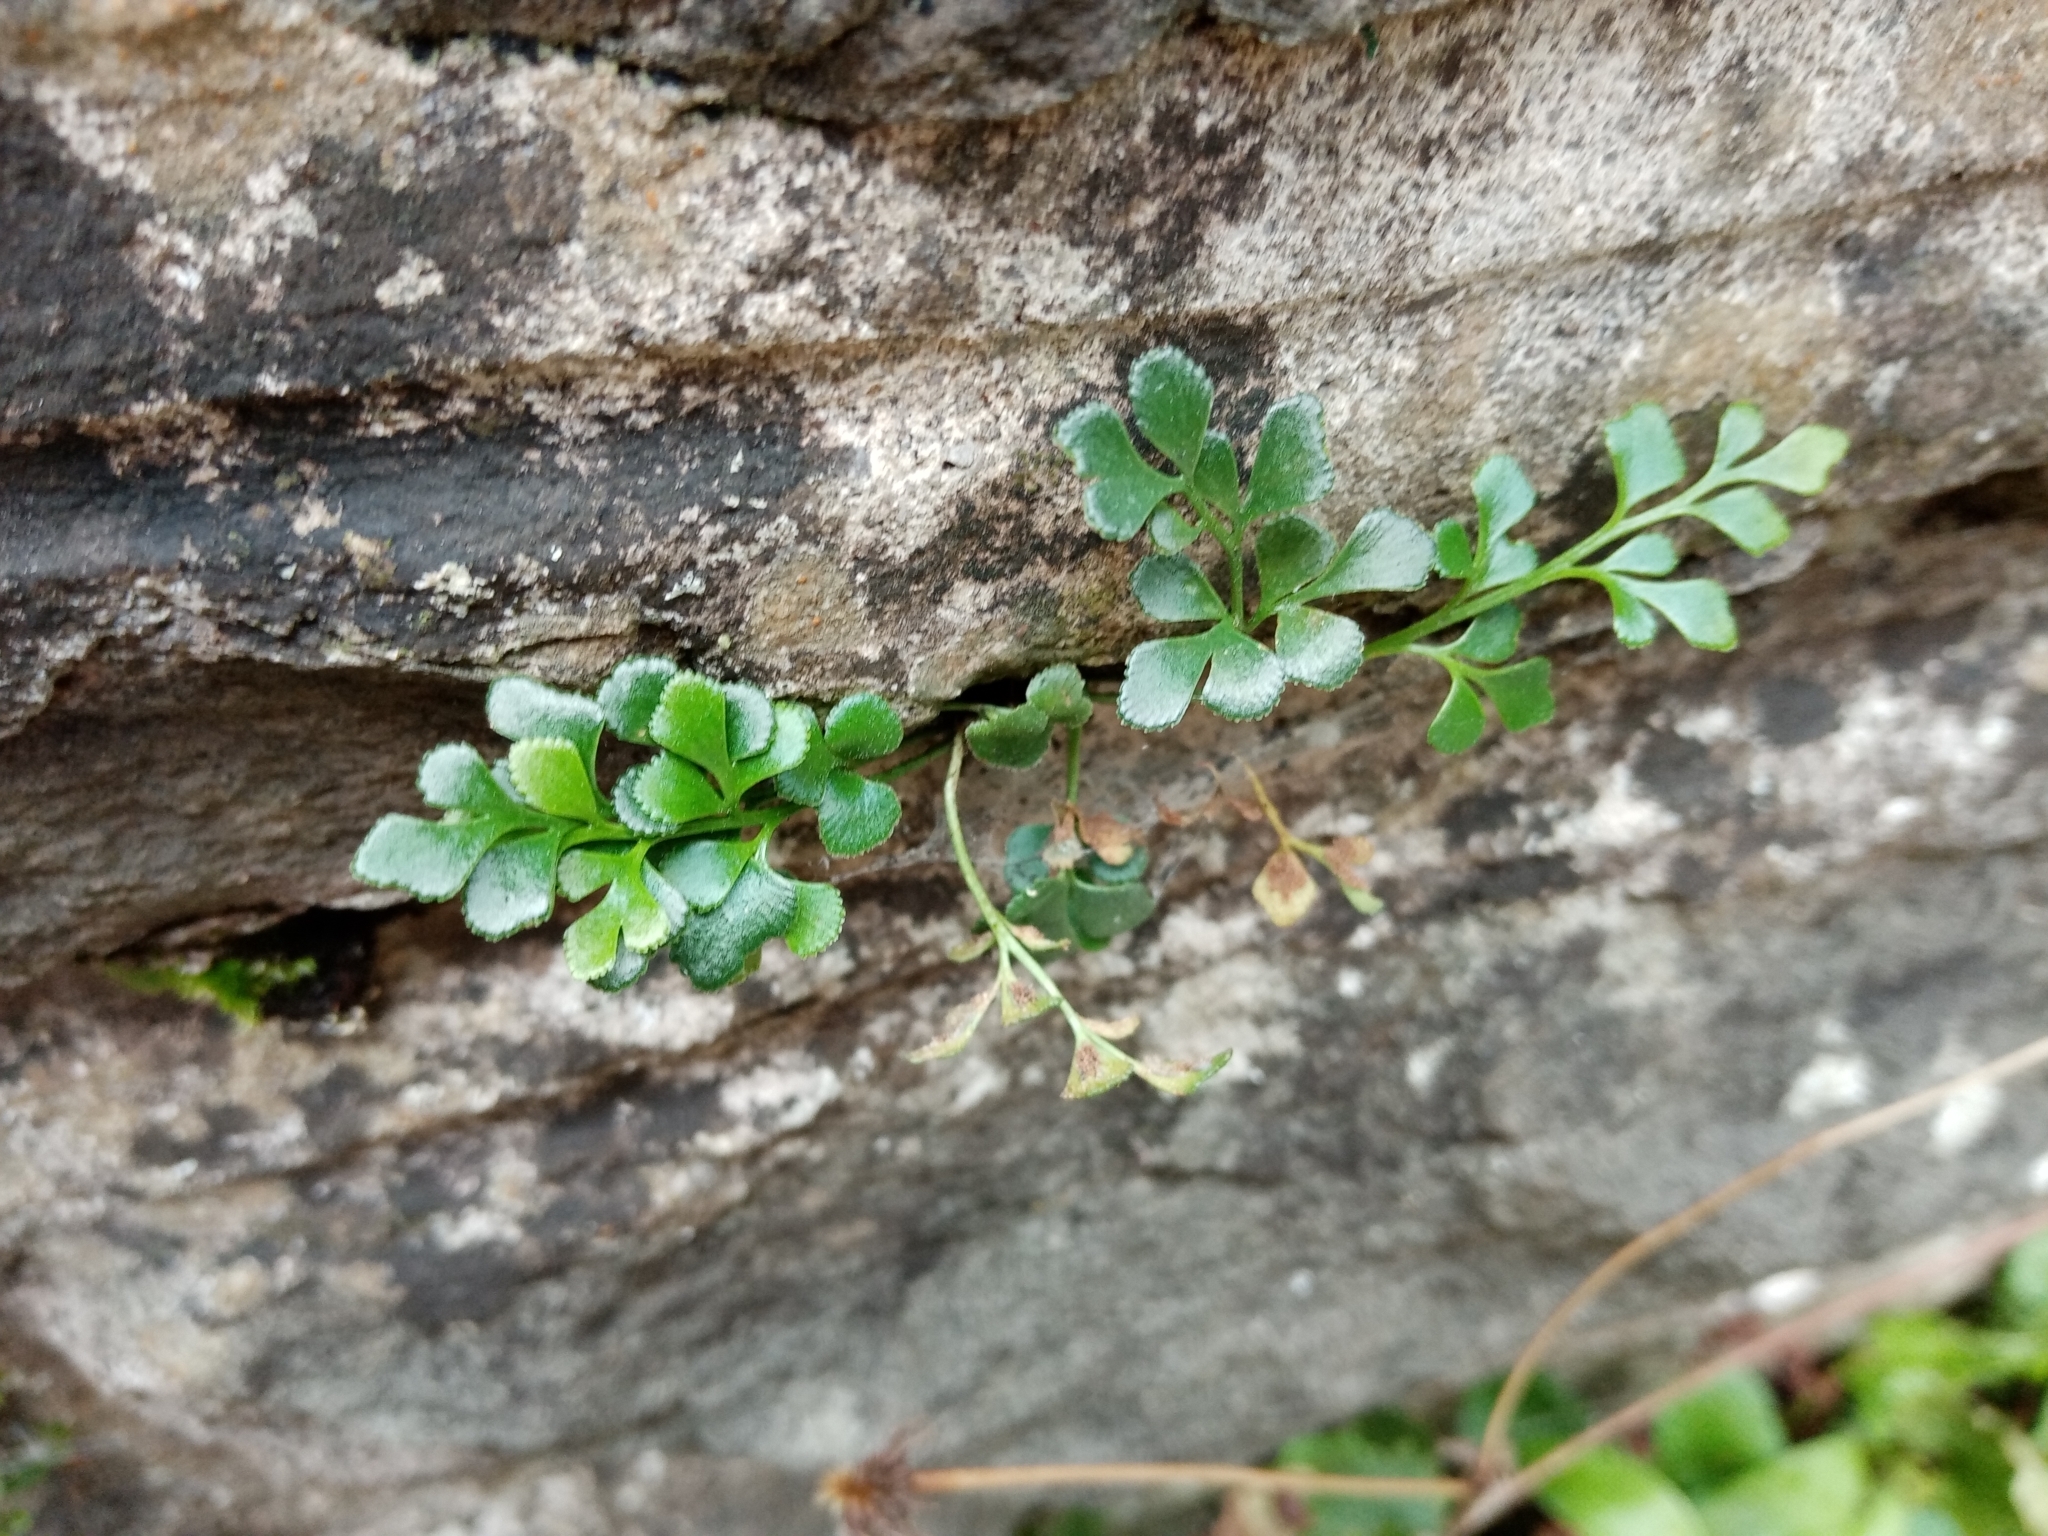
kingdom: Plantae
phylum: Tracheophyta
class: Polypodiopsida
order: Polypodiales
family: Aspleniaceae
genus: Asplenium
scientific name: Asplenium ruta-muraria
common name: Wall-rue
